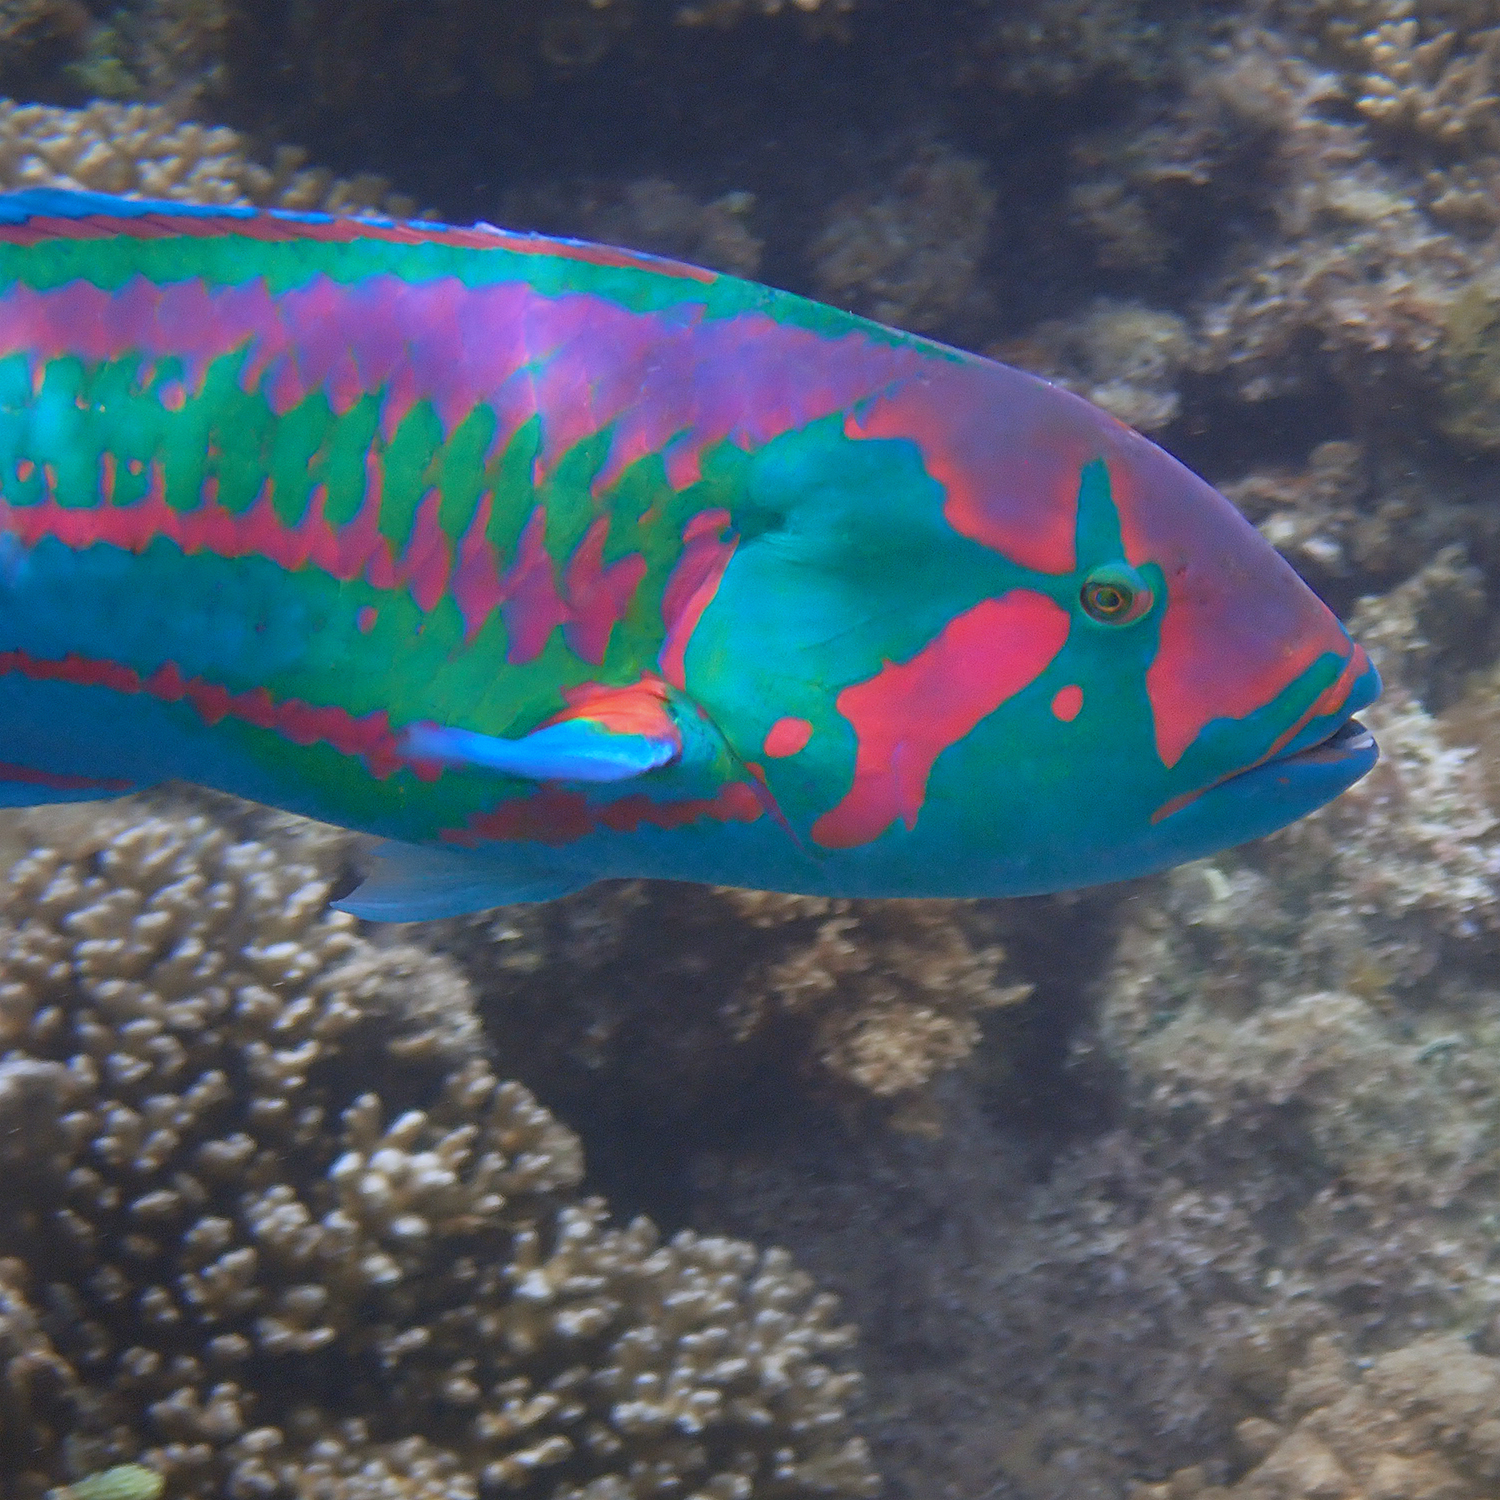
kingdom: Animalia
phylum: Chordata
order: Perciformes
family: Labridae
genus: Thalassoma
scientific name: Thalassoma purpureum
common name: Parrotfish
